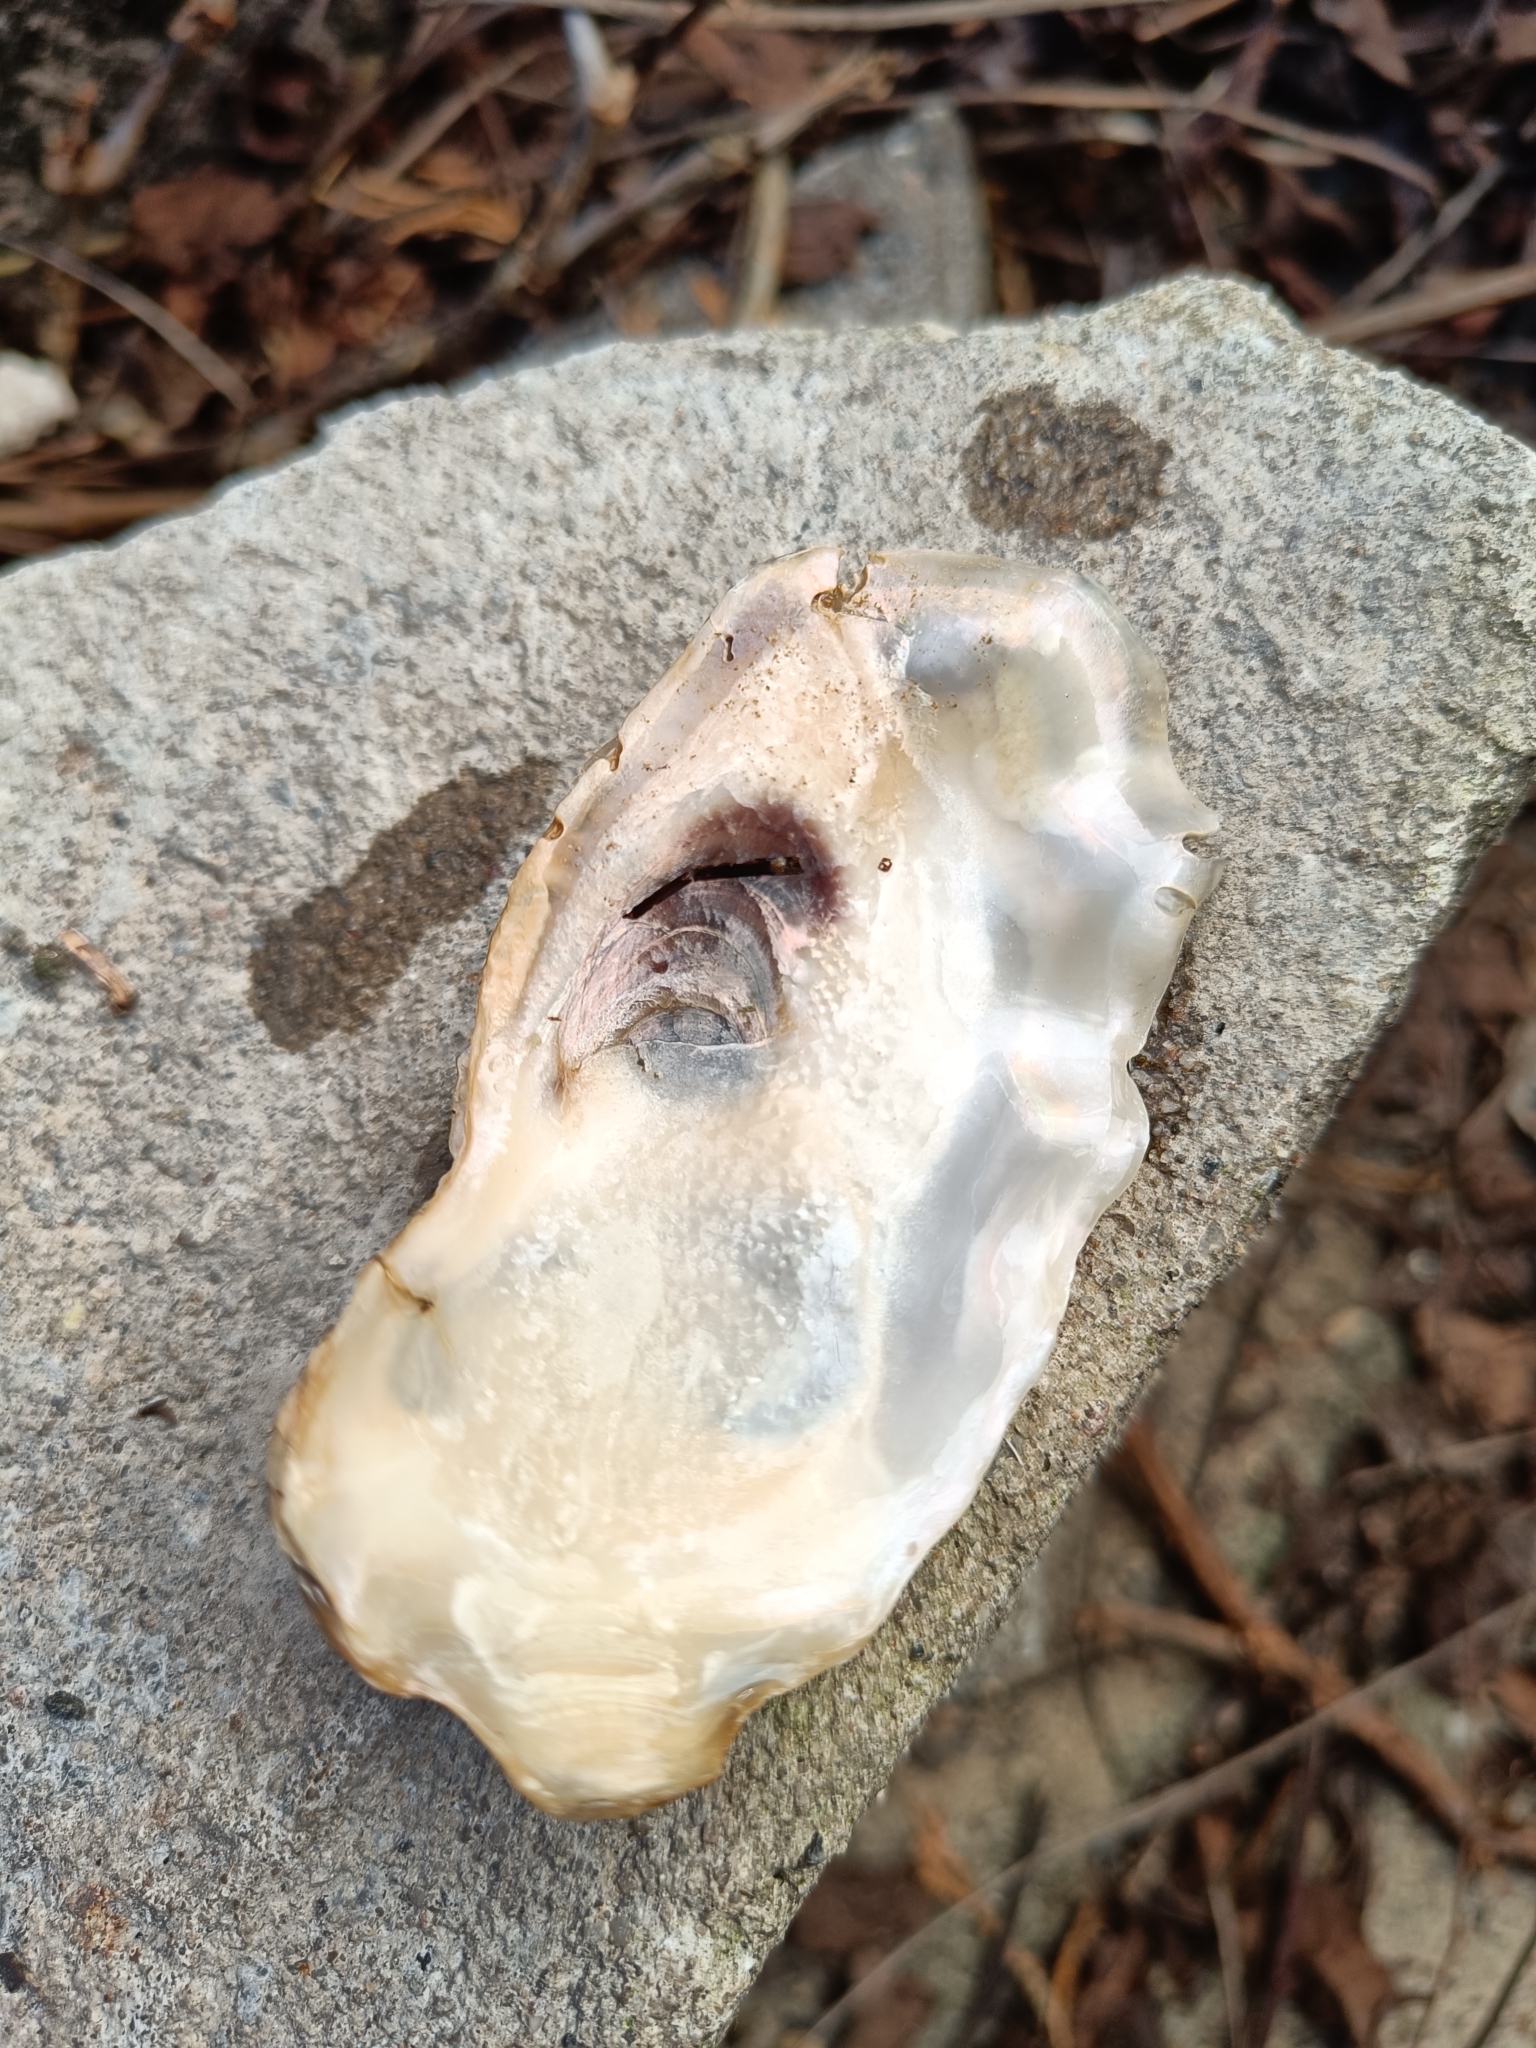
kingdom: Animalia
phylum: Mollusca
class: Bivalvia
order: Ostreida
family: Ostreidae
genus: Magallana
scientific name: Magallana gigas
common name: Pacific oyster
